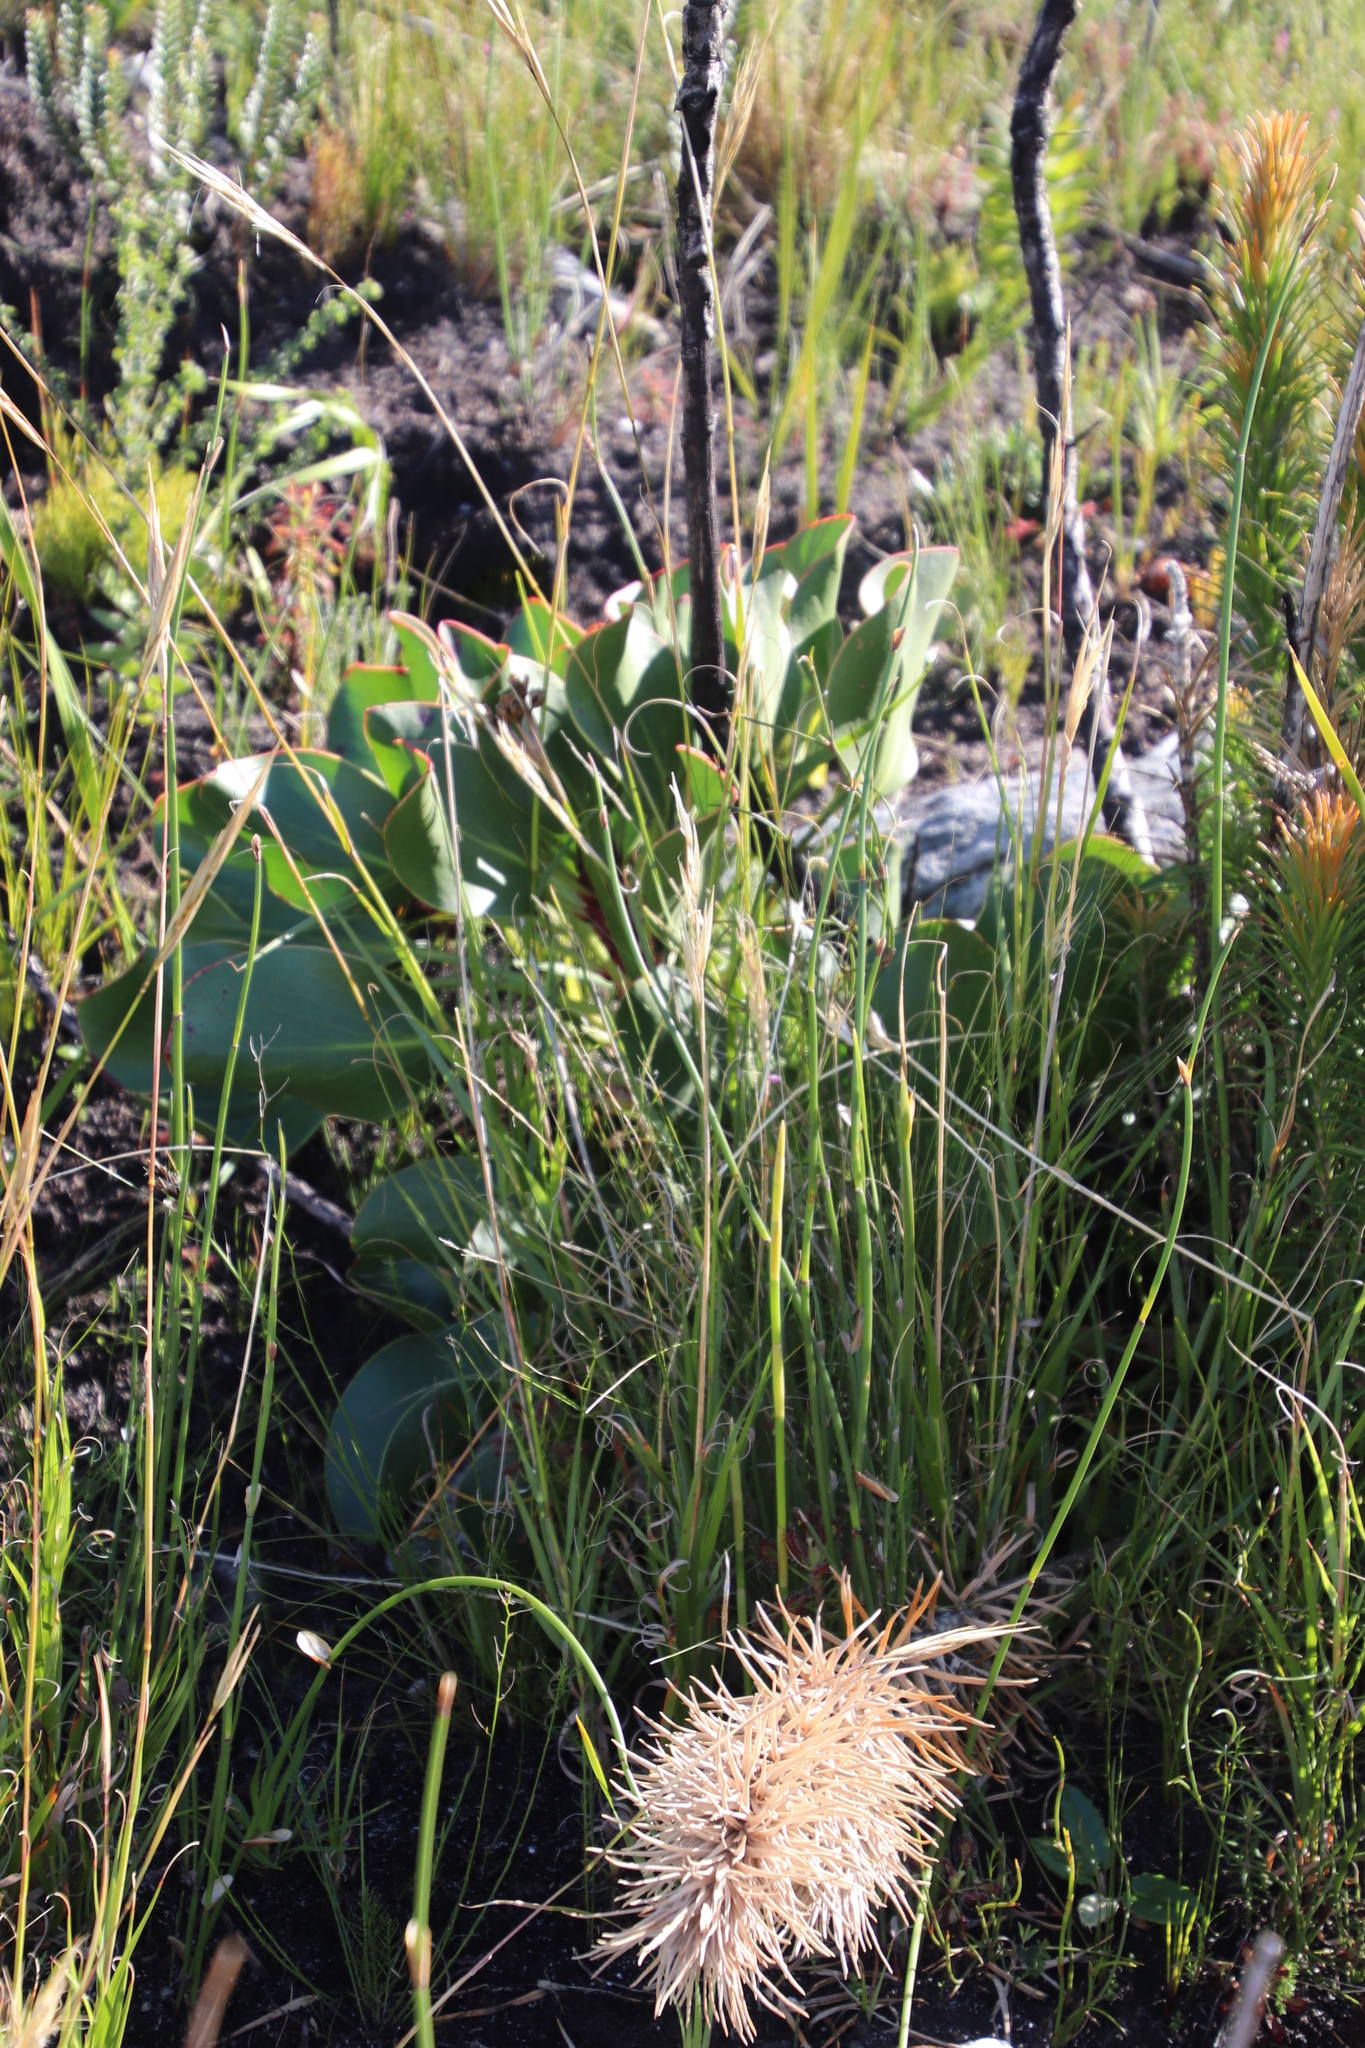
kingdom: Plantae
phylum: Tracheophyta
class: Magnoliopsida
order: Proteales
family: Proteaceae
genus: Protea
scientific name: Protea cynaroides
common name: King protea
